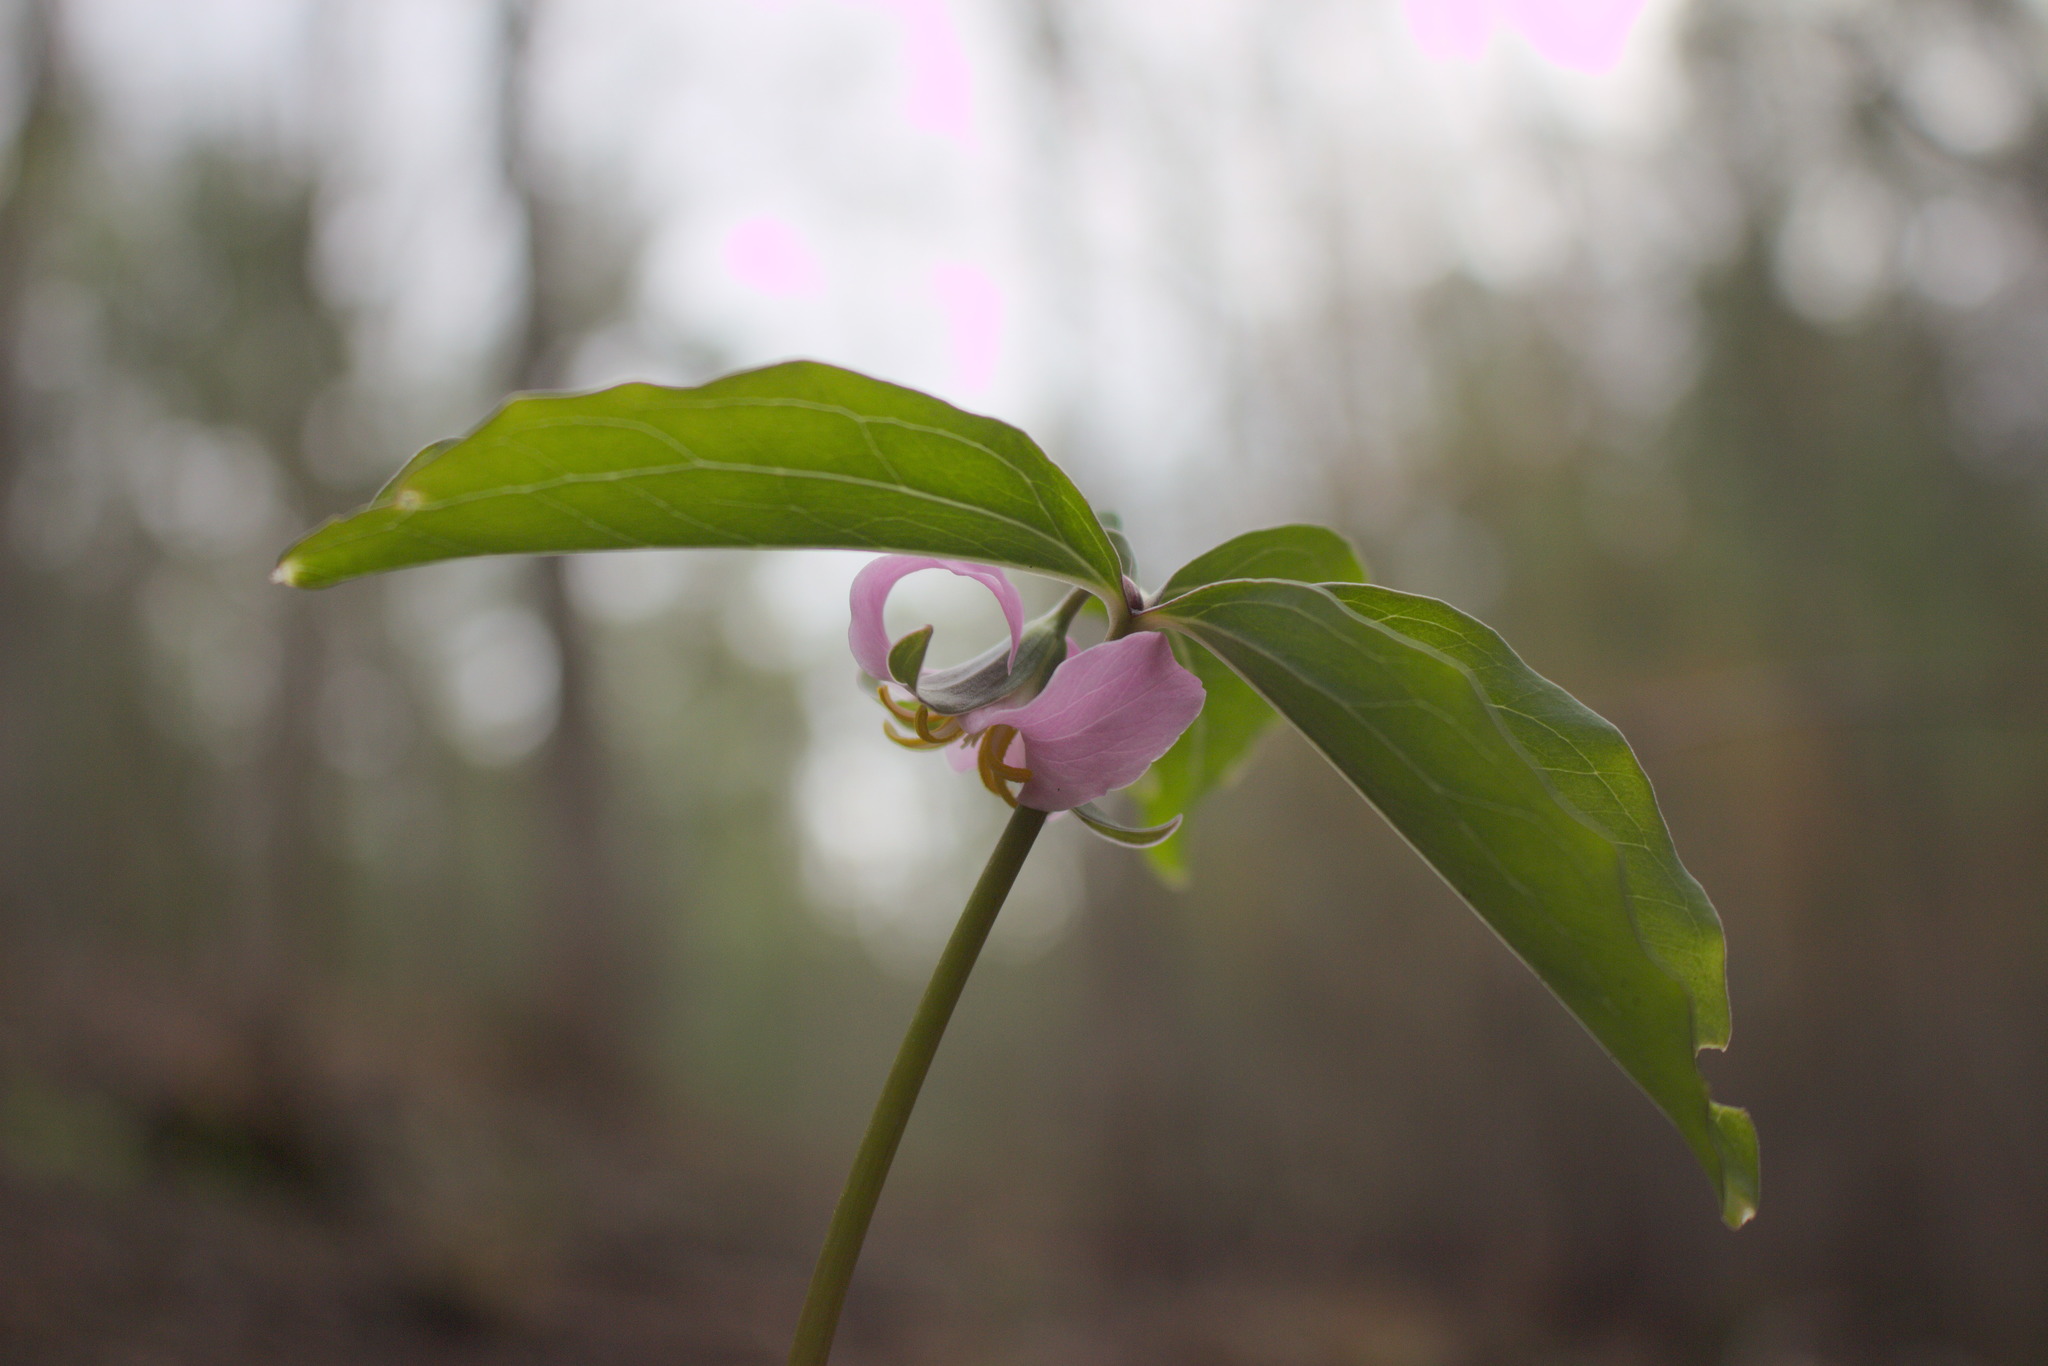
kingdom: Plantae
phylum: Tracheophyta
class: Liliopsida
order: Liliales
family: Melanthiaceae
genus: Trillium
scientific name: Trillium catesbaei
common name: Bashful trillium
